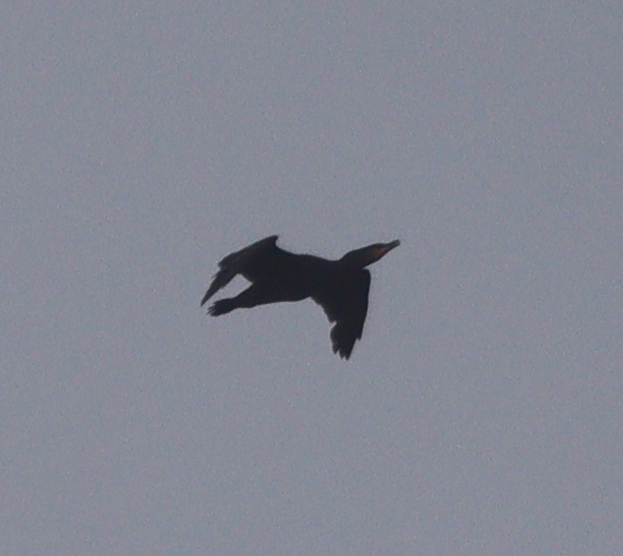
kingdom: Animalia
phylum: Chordata
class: Aves
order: Suliformes
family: Phalacrocoracidae
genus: Phalacrocorax
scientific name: Phalacrocorax carbo
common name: Great cormorant
